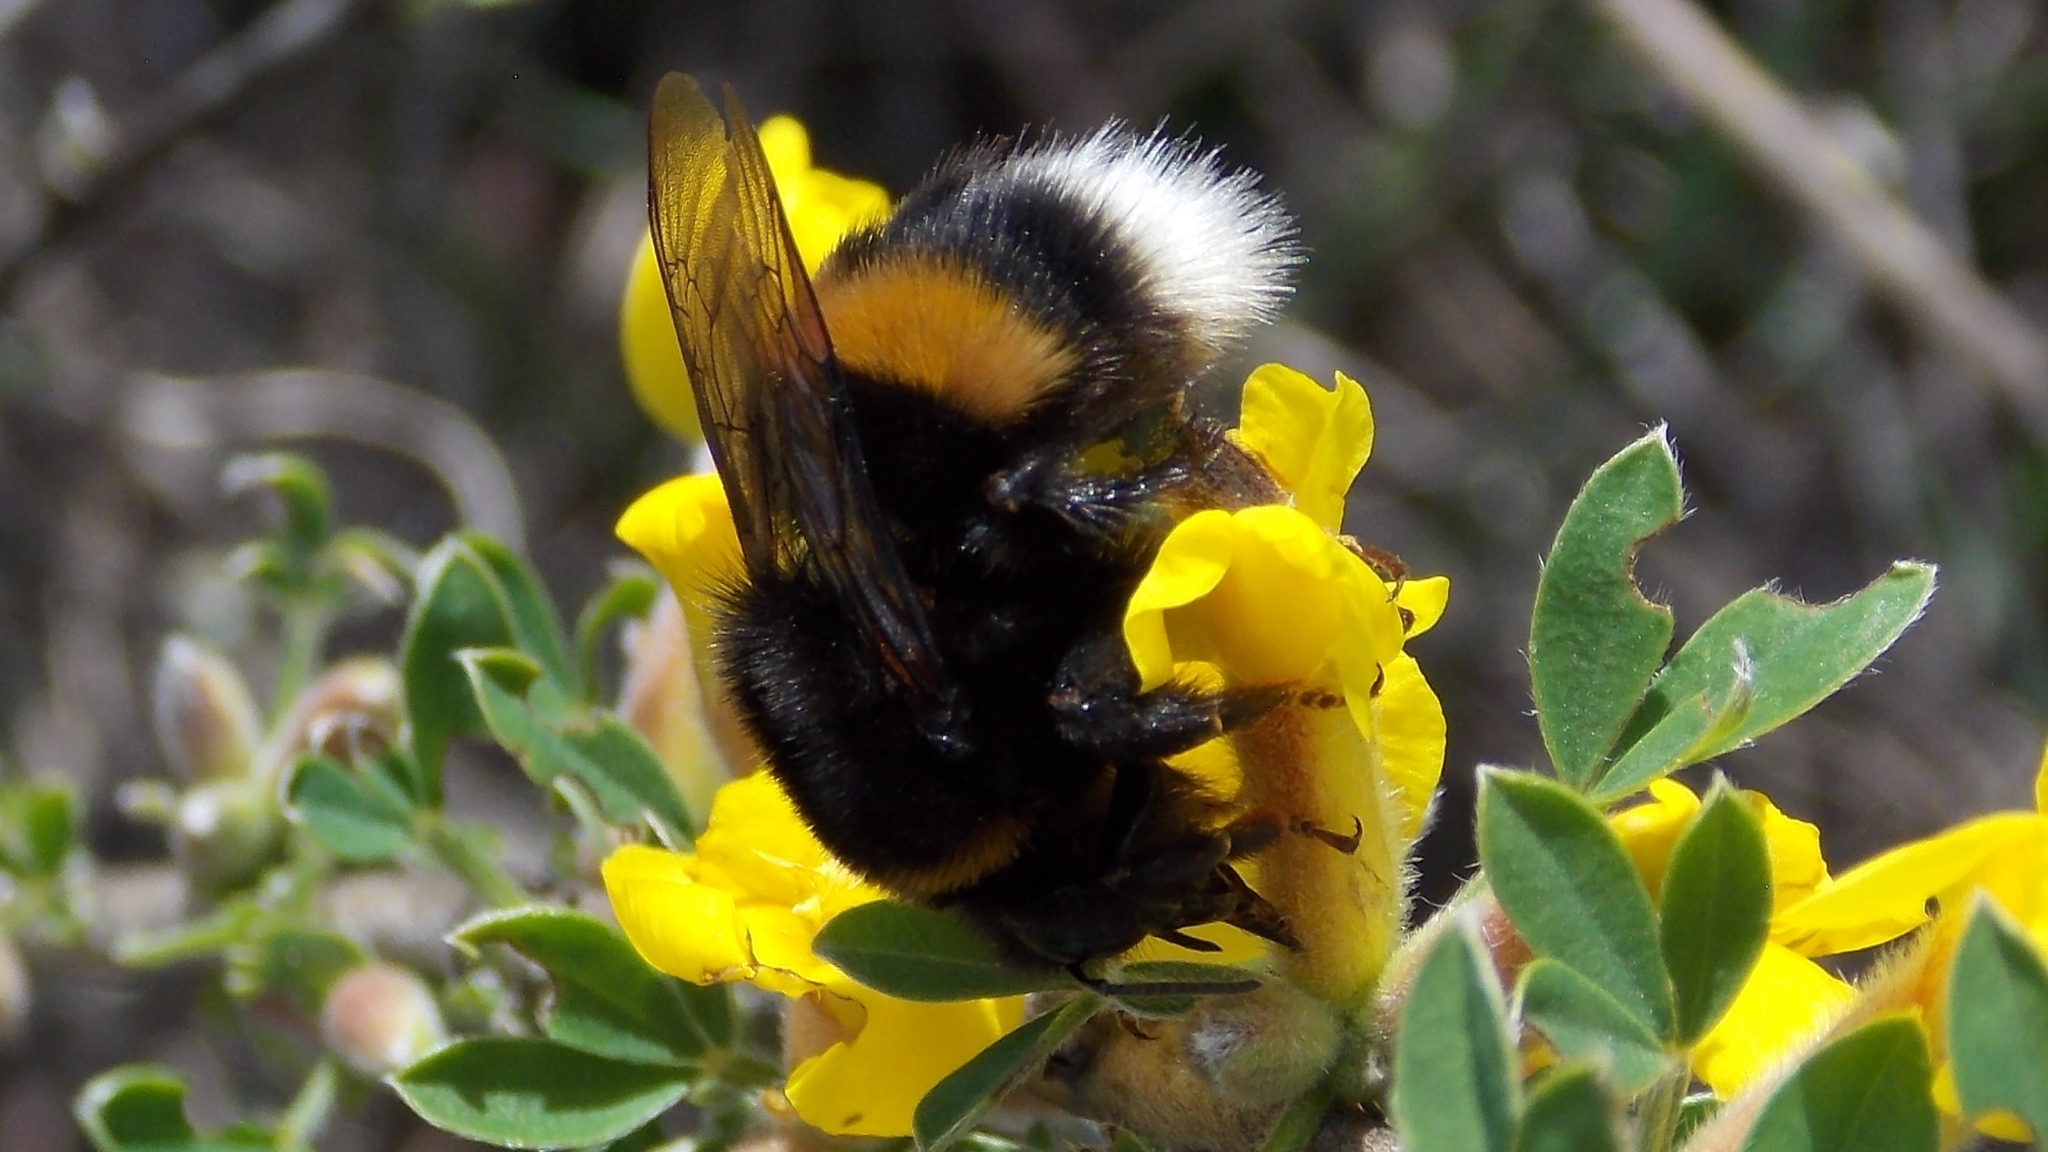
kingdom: Animalia
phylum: Arthropoda
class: Insecta
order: Hymenoptera
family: Apidae
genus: Bombus
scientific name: Bombus
